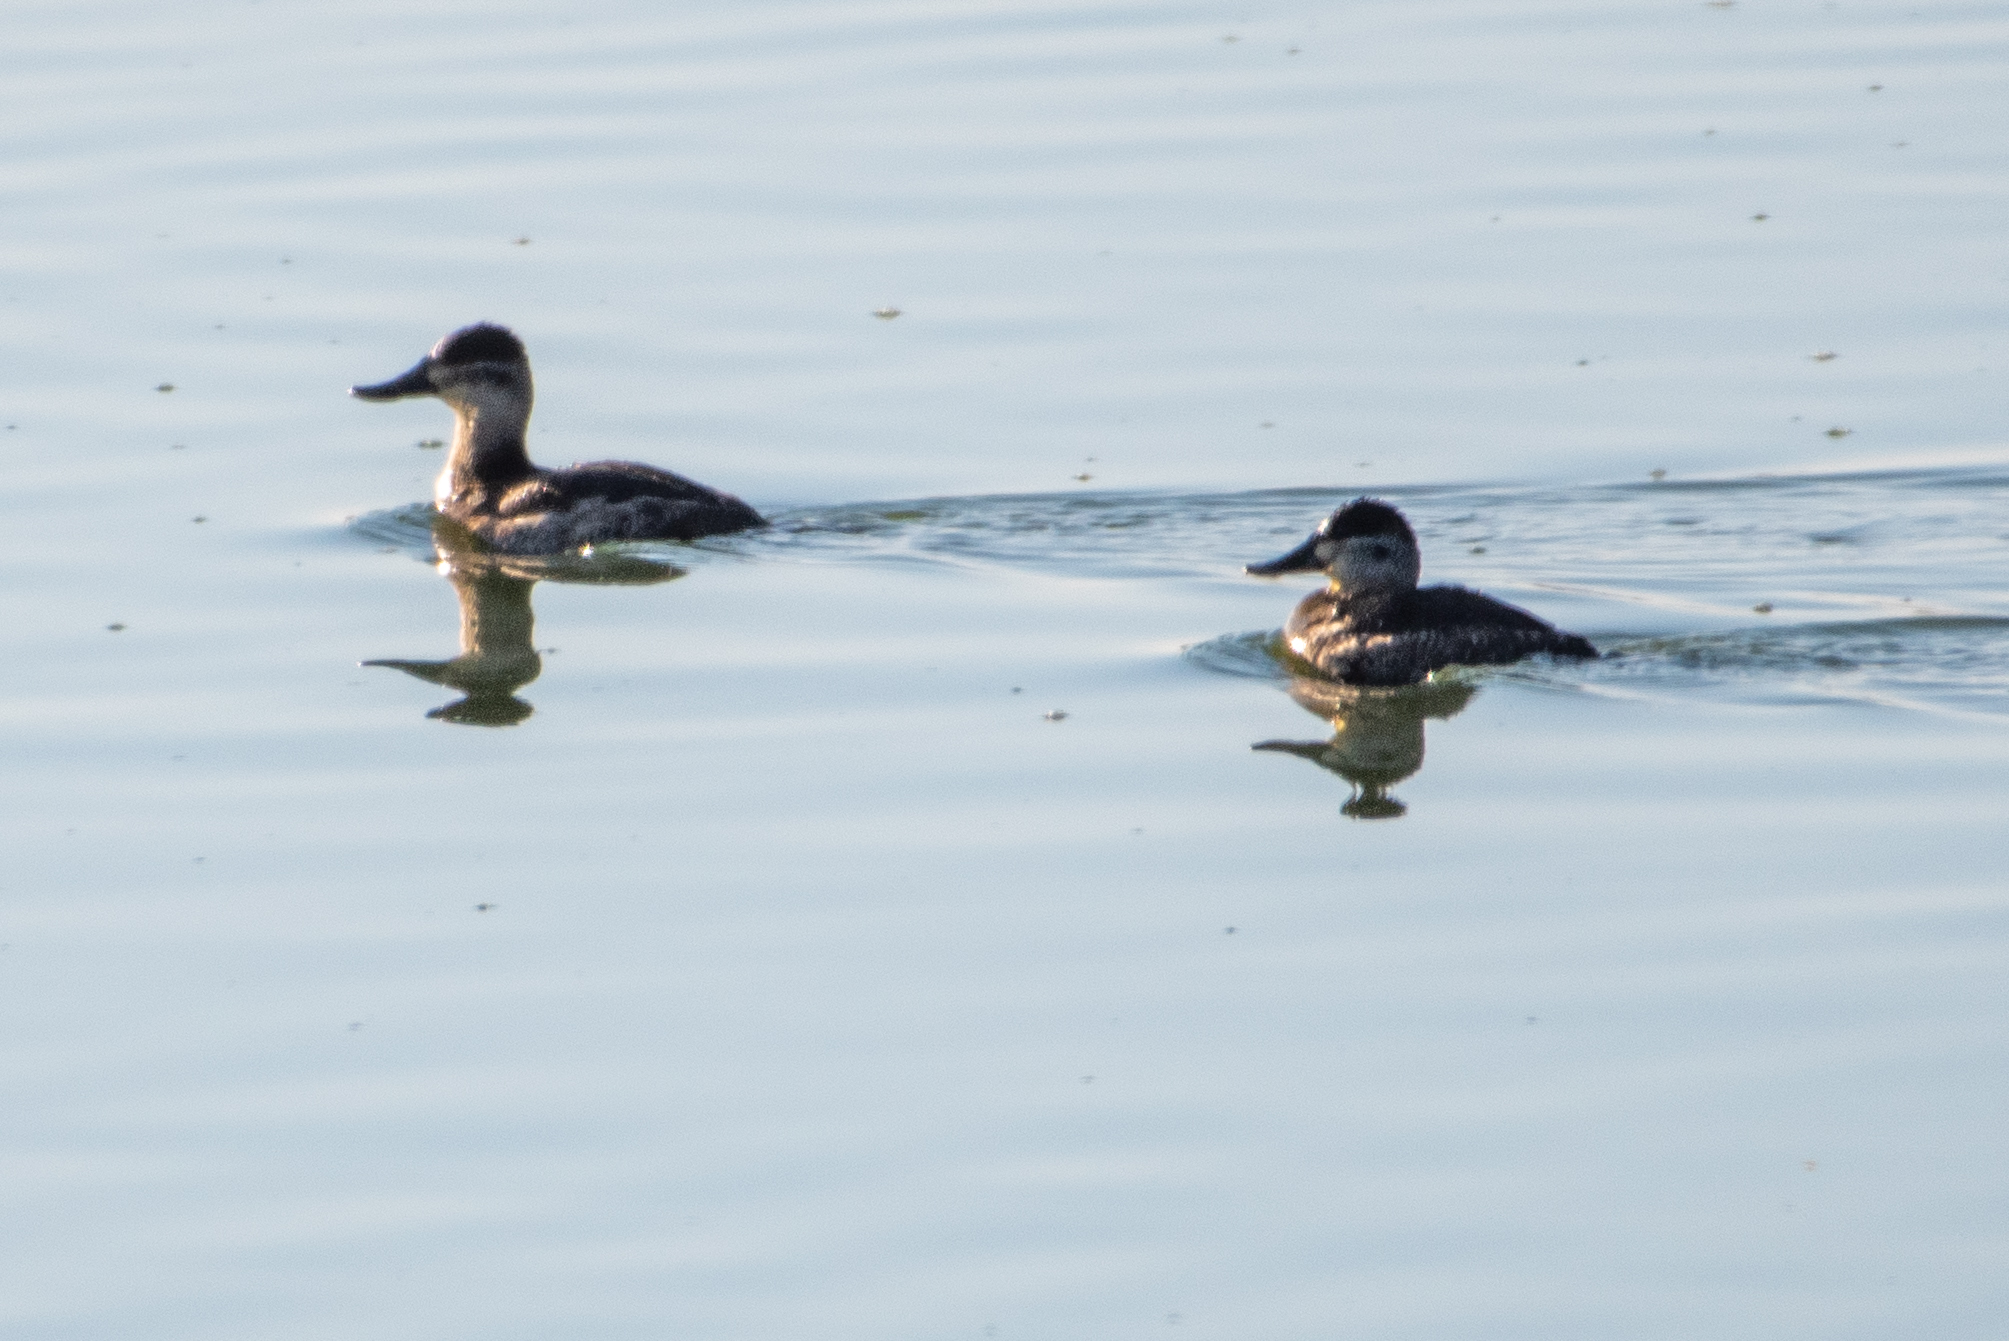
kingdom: Animalia
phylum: Chordata
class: Aves
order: Anseriformes
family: Anatidae
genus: Oxyura
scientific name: Oxyura jamaicensis
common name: Ruddy duck
